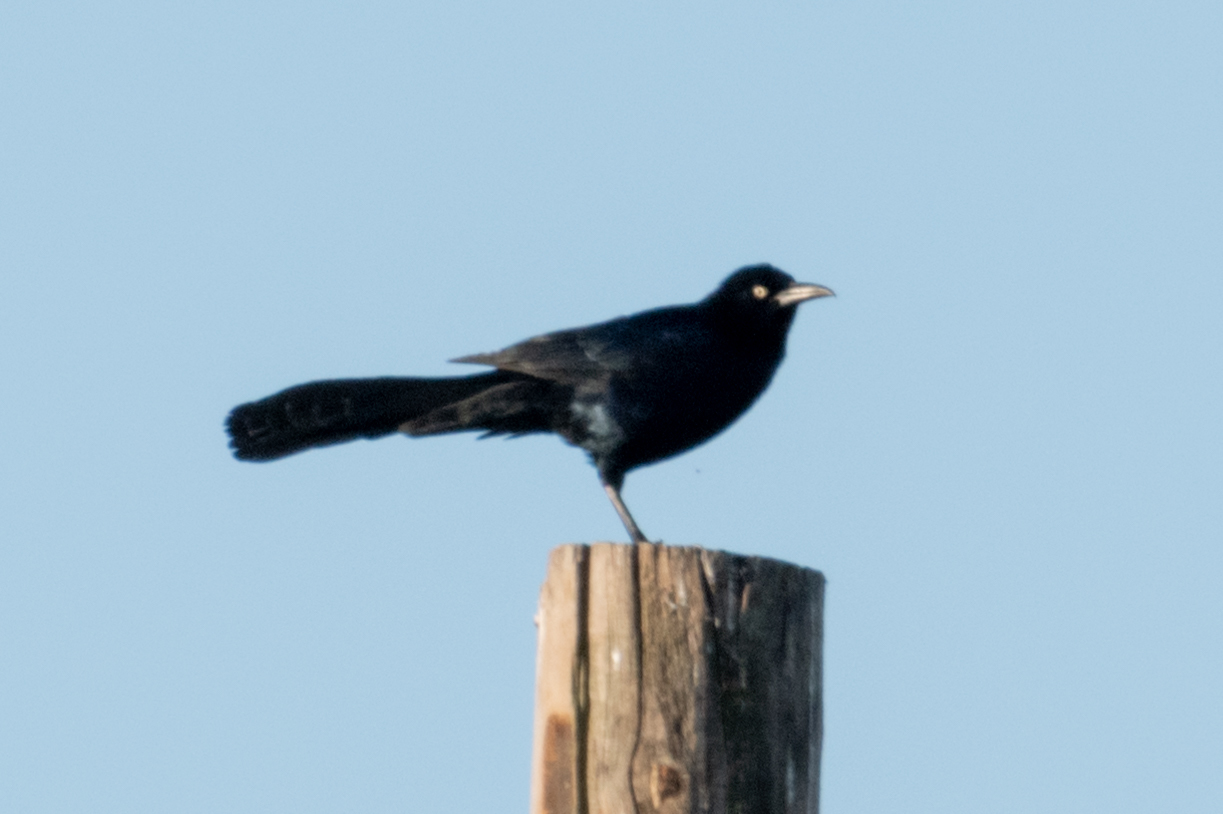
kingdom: Animalia
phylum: Chordata
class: Aves
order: Passeriformes
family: Icteridae
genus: Quiscalus
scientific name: Quiscalus mexicanus
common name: Great-tailed grackle
